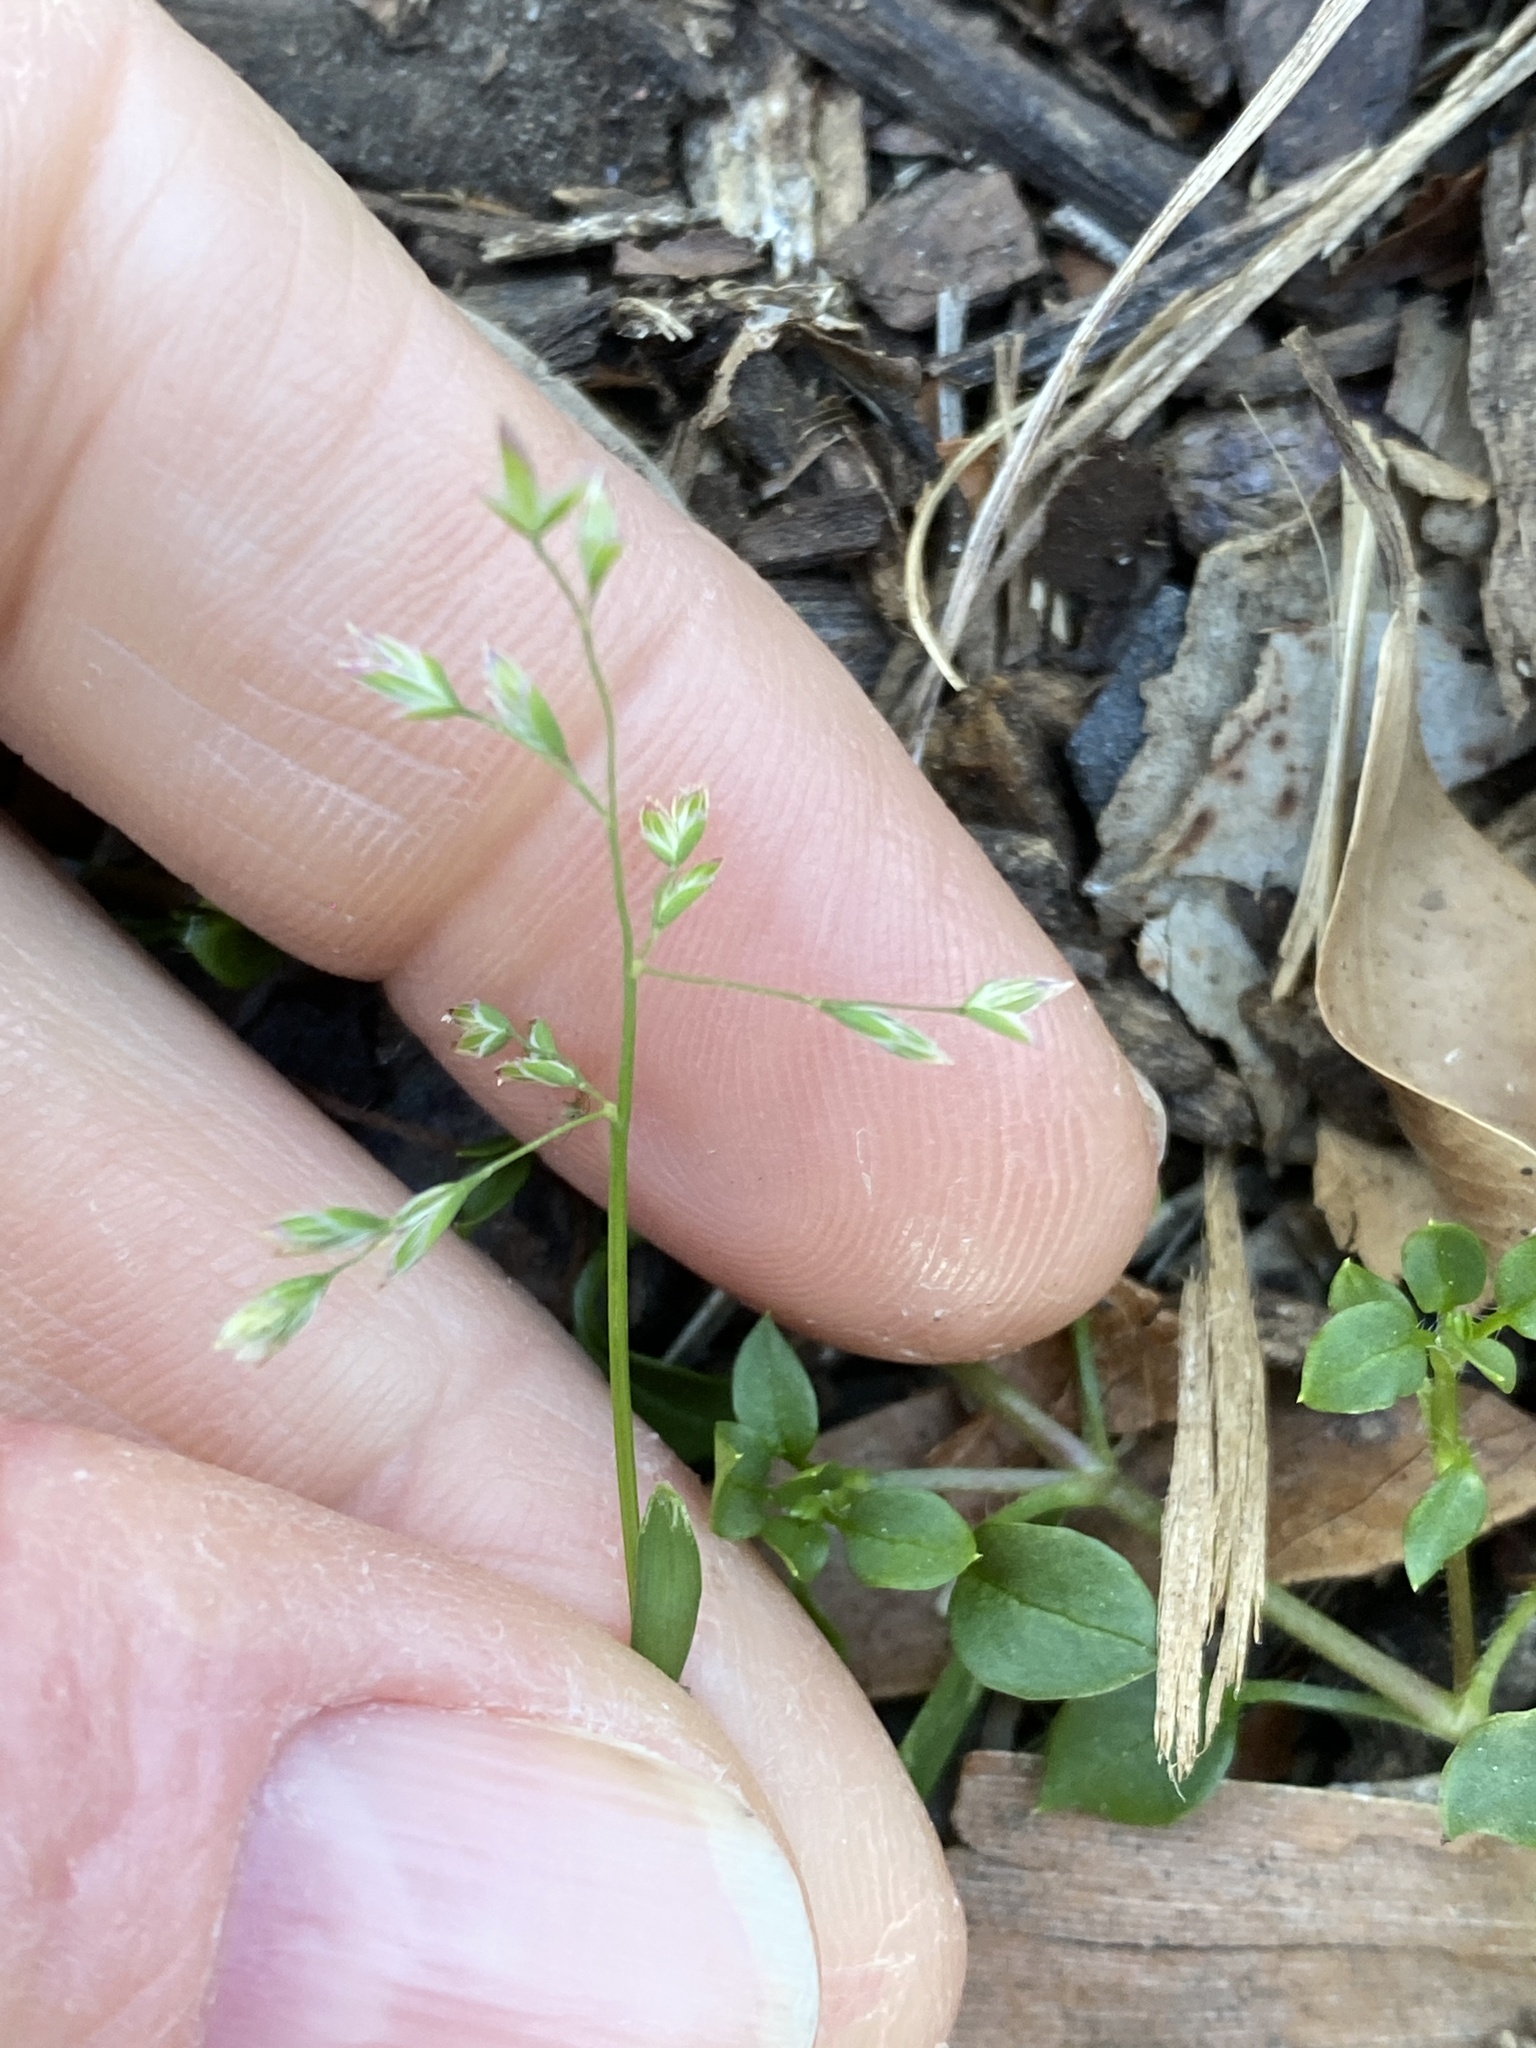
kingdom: Plantae
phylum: Tracheophyta
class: Liliopsida
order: Poales
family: Poaceae
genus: Poa
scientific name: Poa annua
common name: Annual bluegrass
